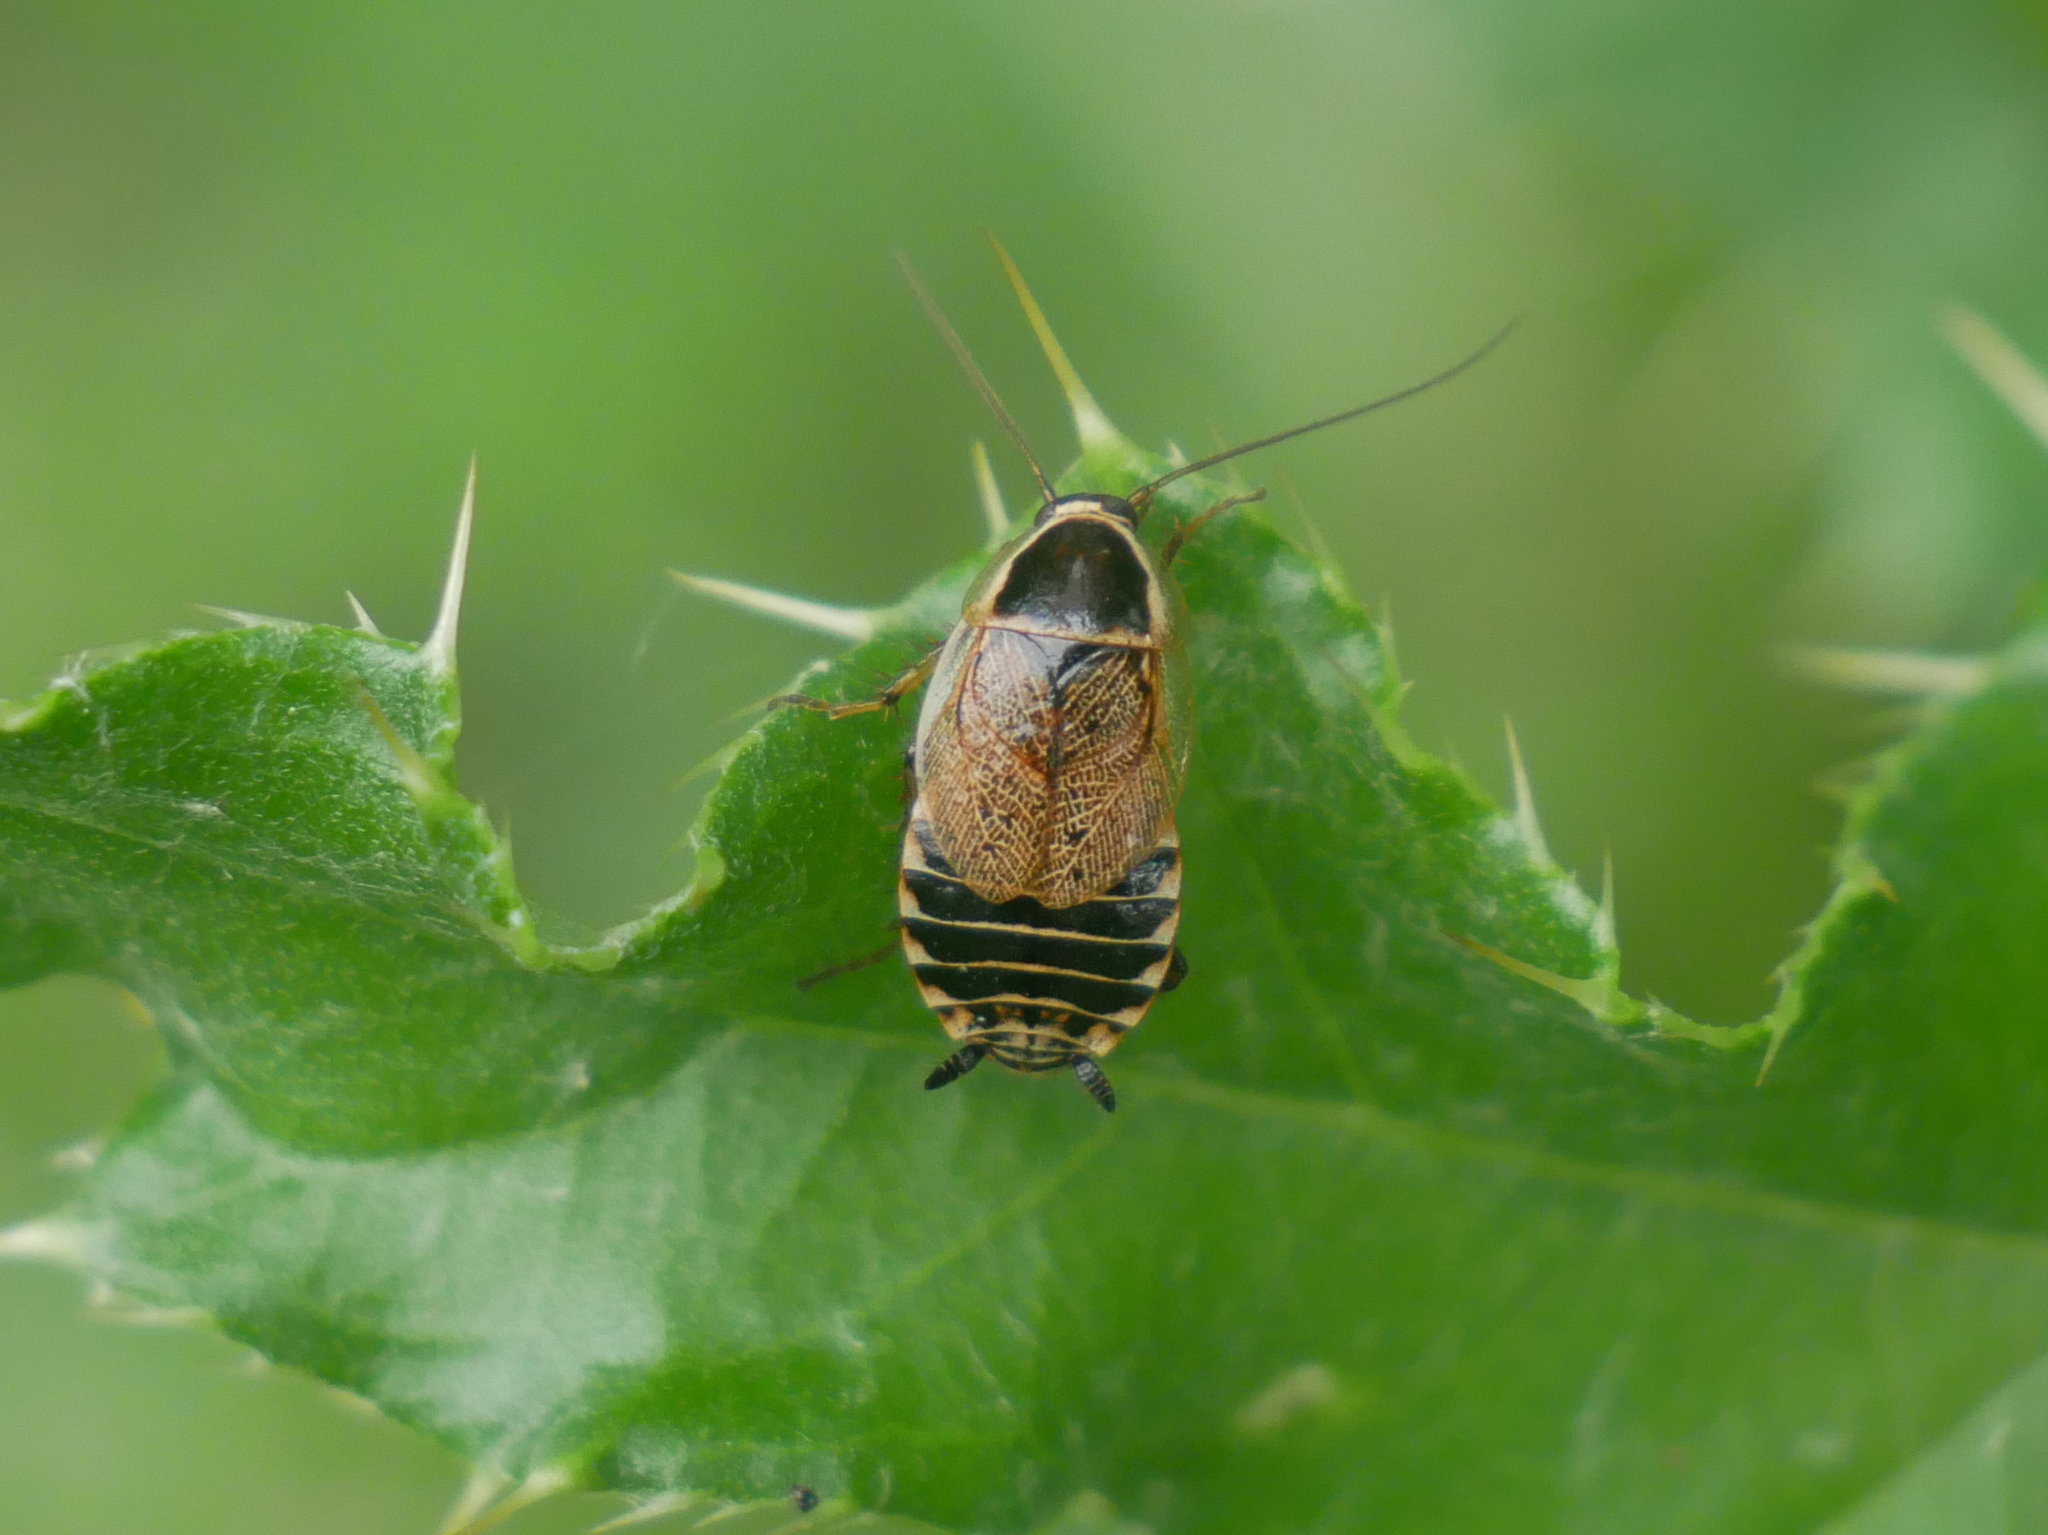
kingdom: Animalia
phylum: Arthropoda
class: Insecta
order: Blattodea
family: Ectobiidae
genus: Ectobius
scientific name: Ectobius sylvestris
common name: Forest cockroach
